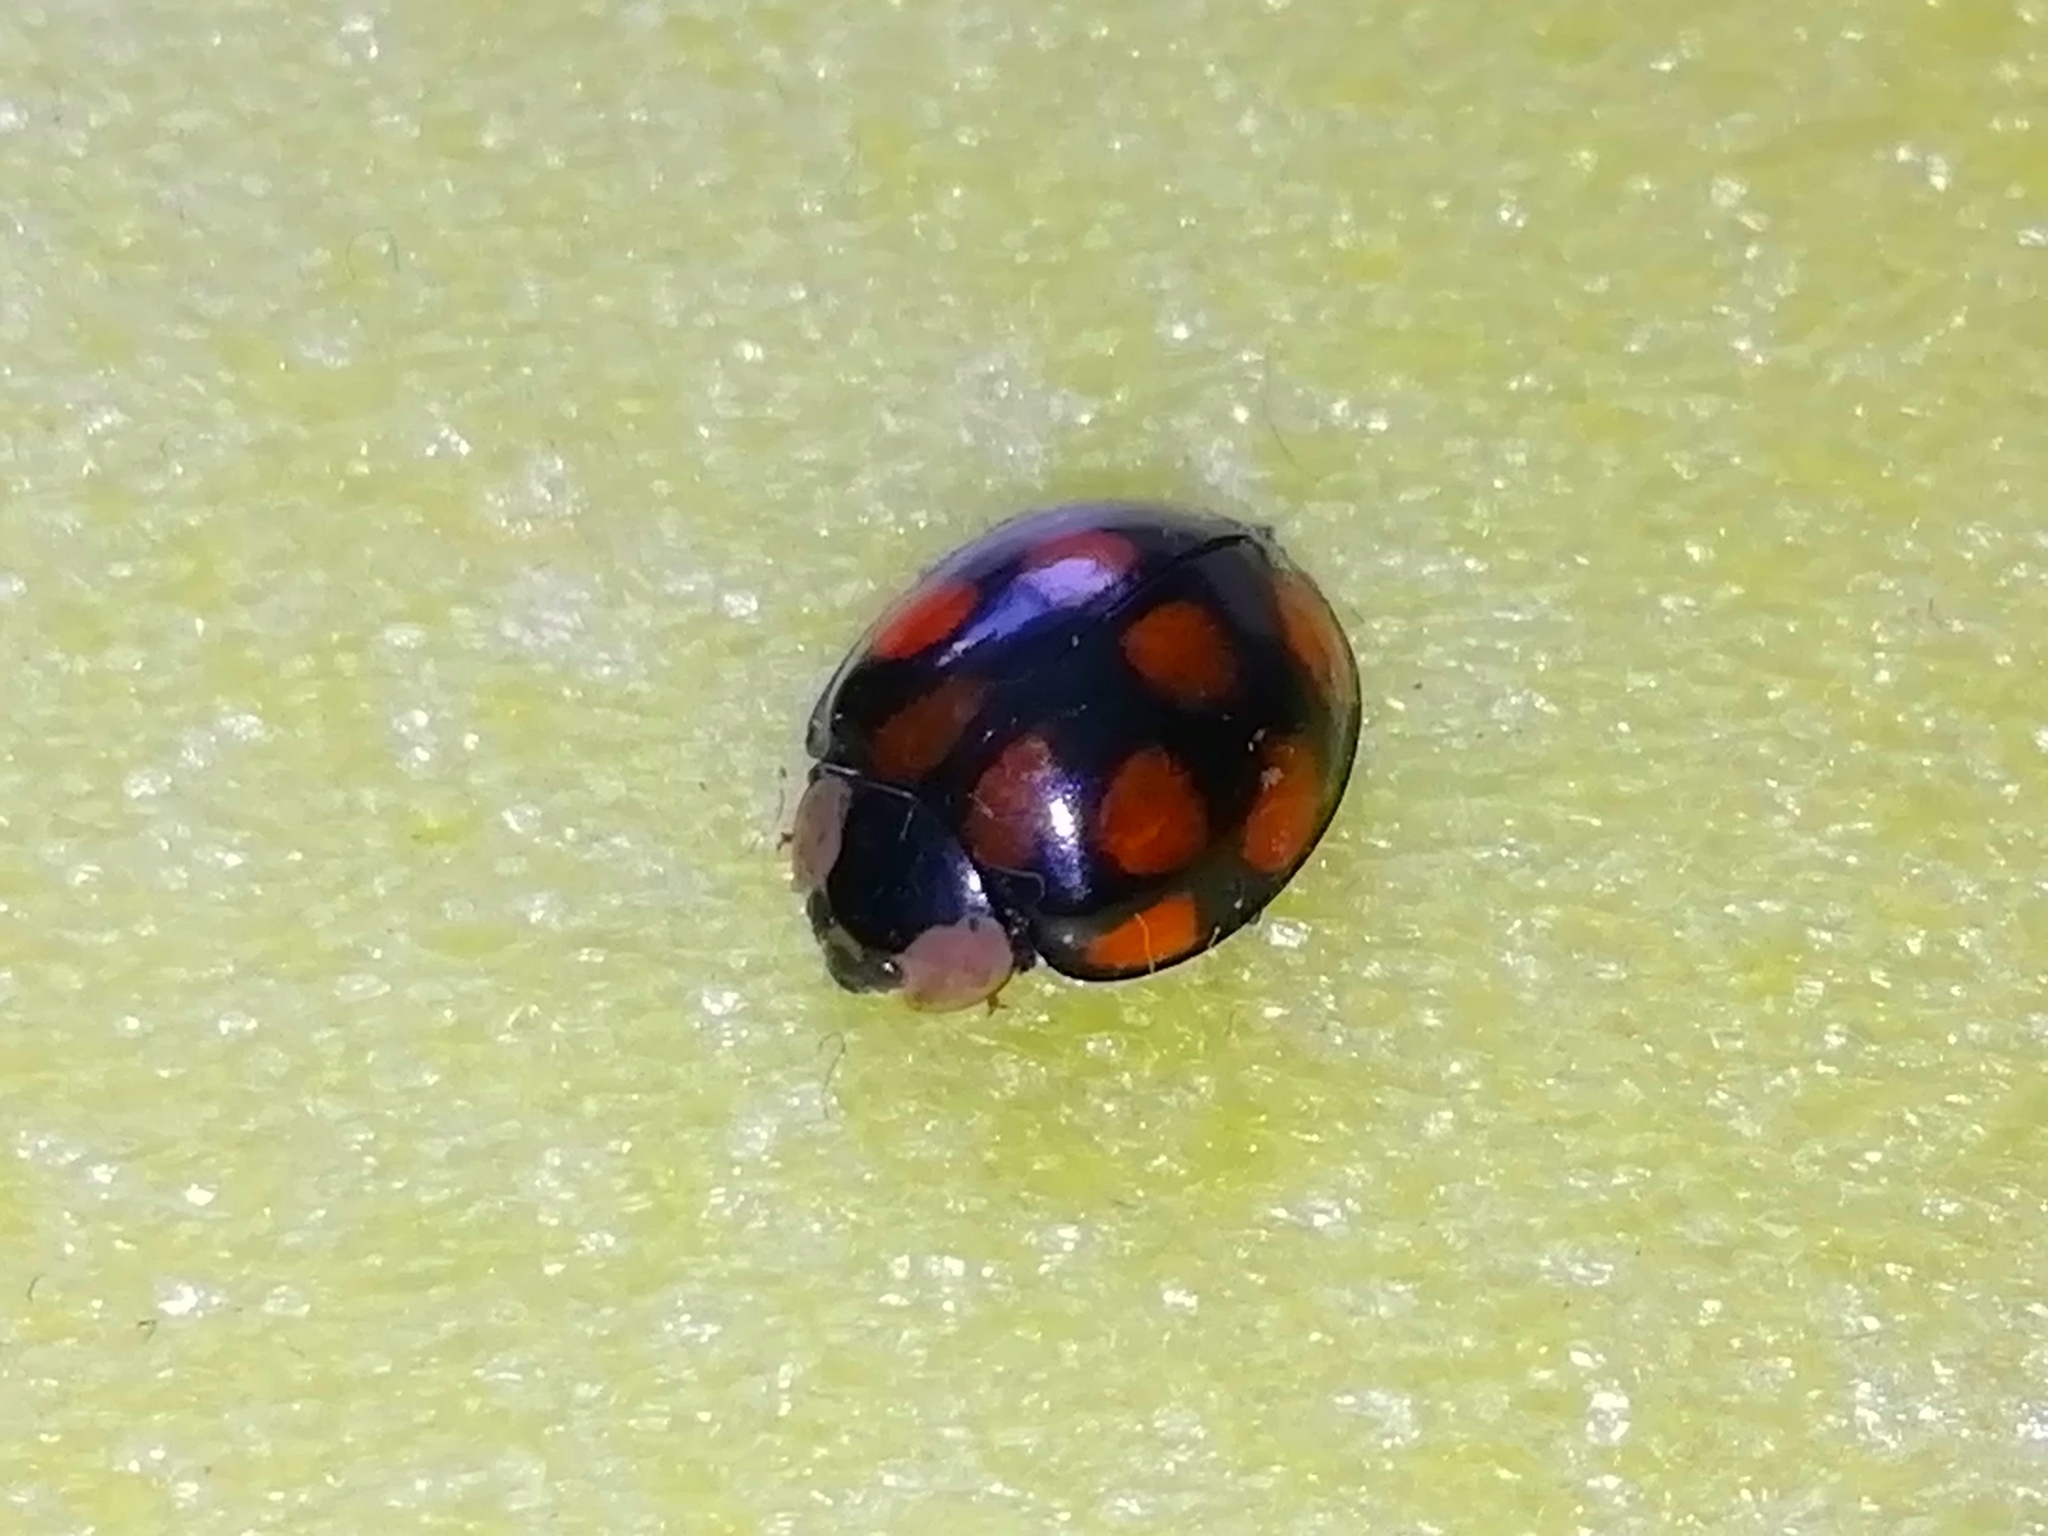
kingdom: Animalia
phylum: Arthropoda
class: Insecta
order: Coleoptera
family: Coccinellidae
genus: Harmonia
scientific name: Harmonia axyridis
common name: Harlequin ladybird
